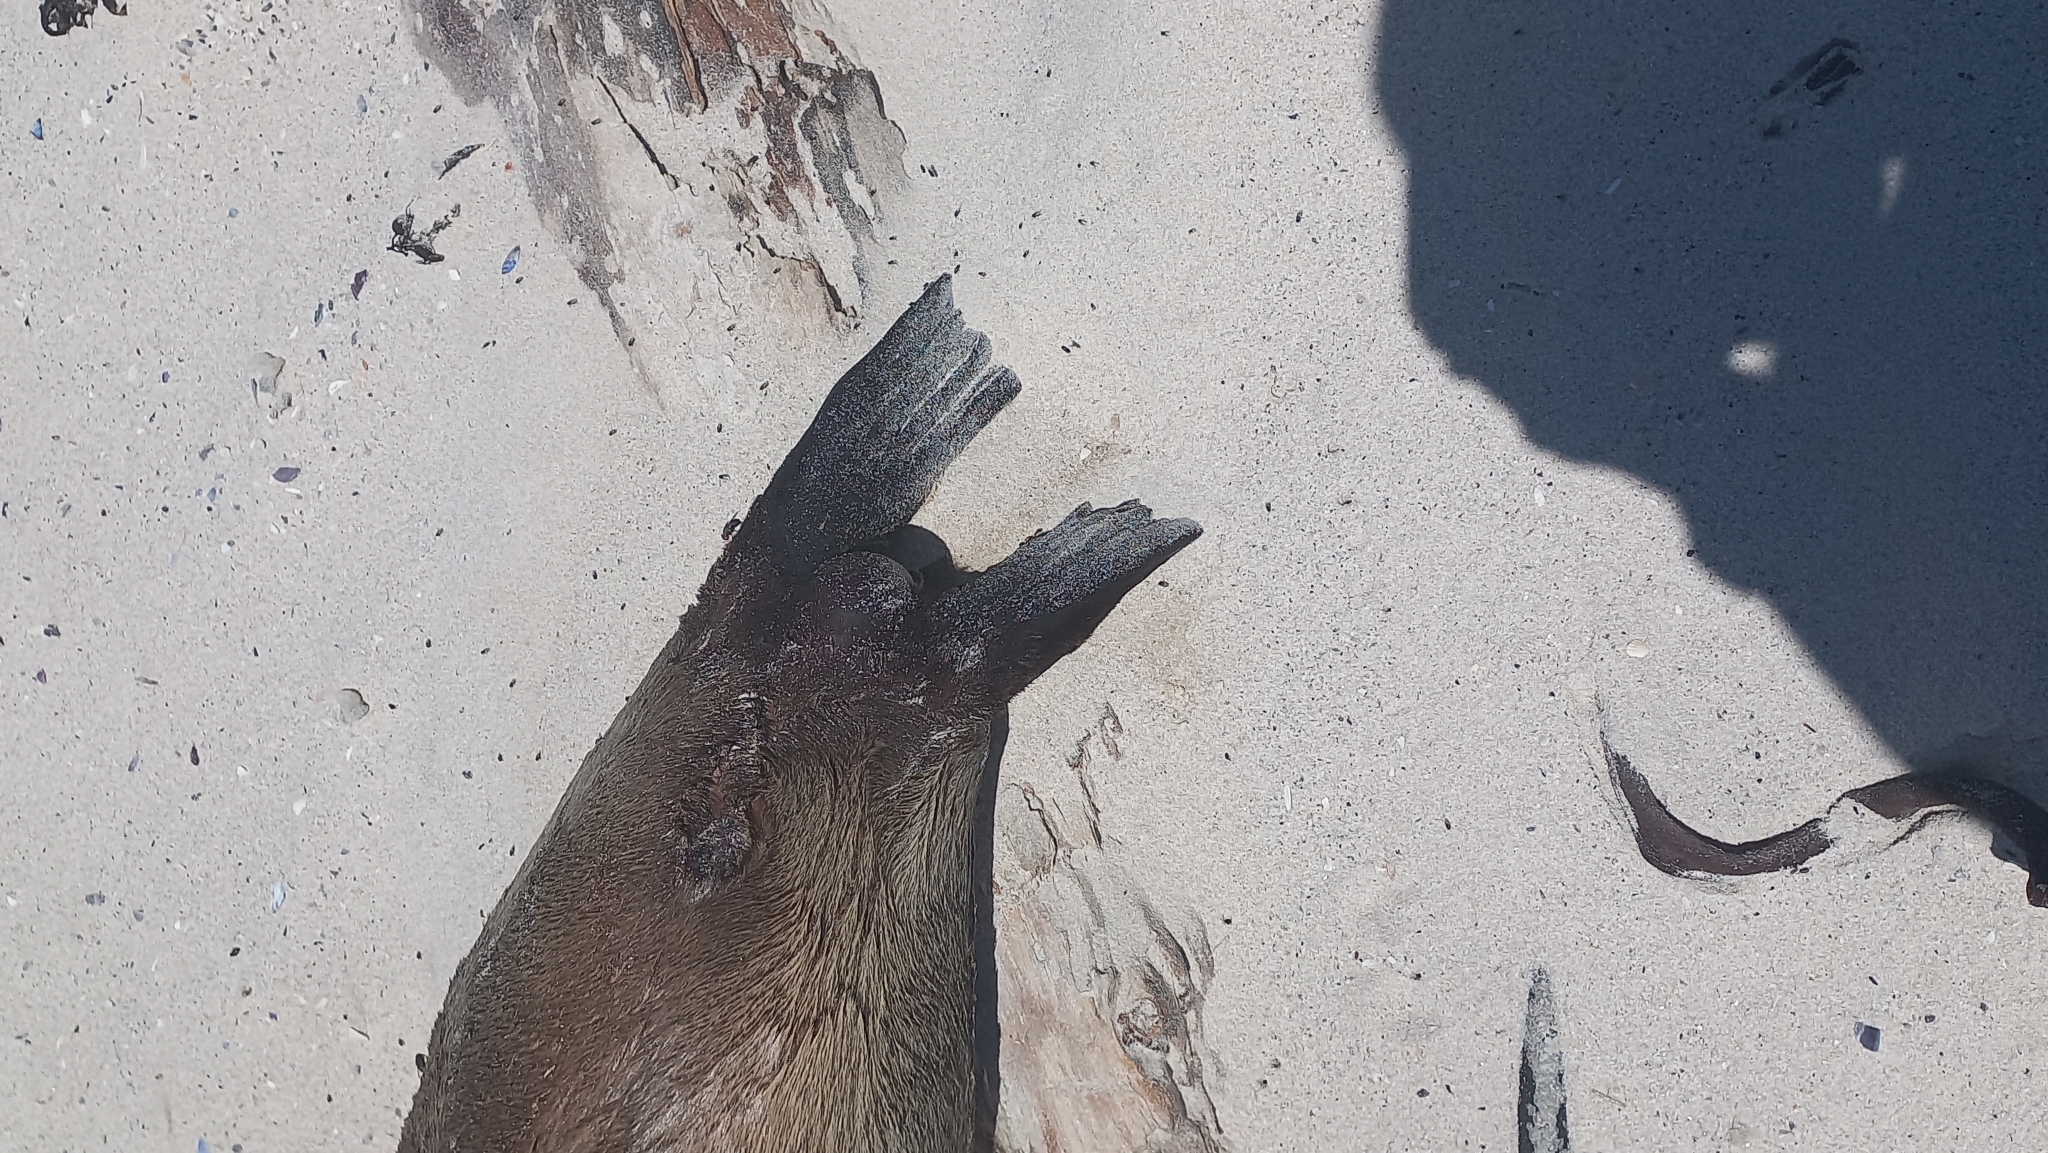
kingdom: Animalia
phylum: Chordata
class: Mammalia
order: Carnivora
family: Otariidae
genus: Arctocephalus
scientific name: Arctocephalus pusillus
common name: Brown fur seal
